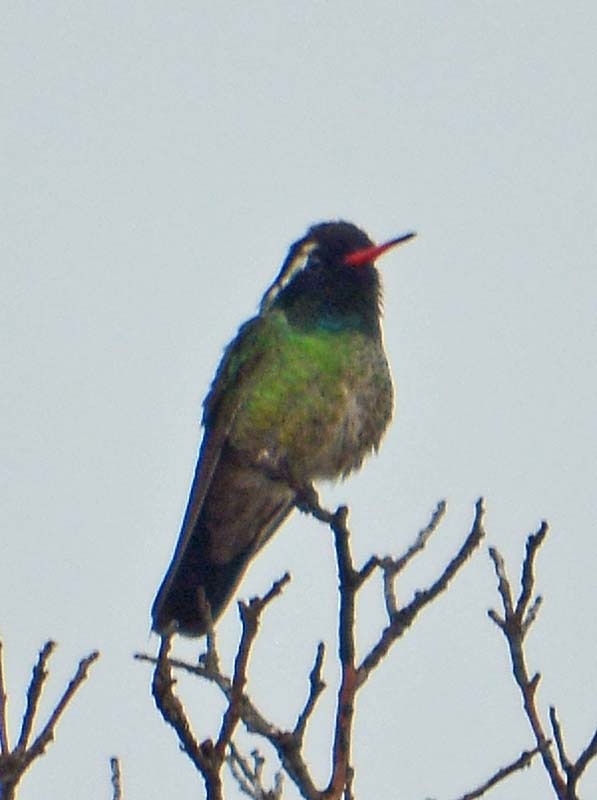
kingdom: Animalia
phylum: Chordata
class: Aves
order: Apodiformes
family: Trochilidae
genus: Basilinna
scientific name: Basilinna leucotis
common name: White-eared hummingbird
